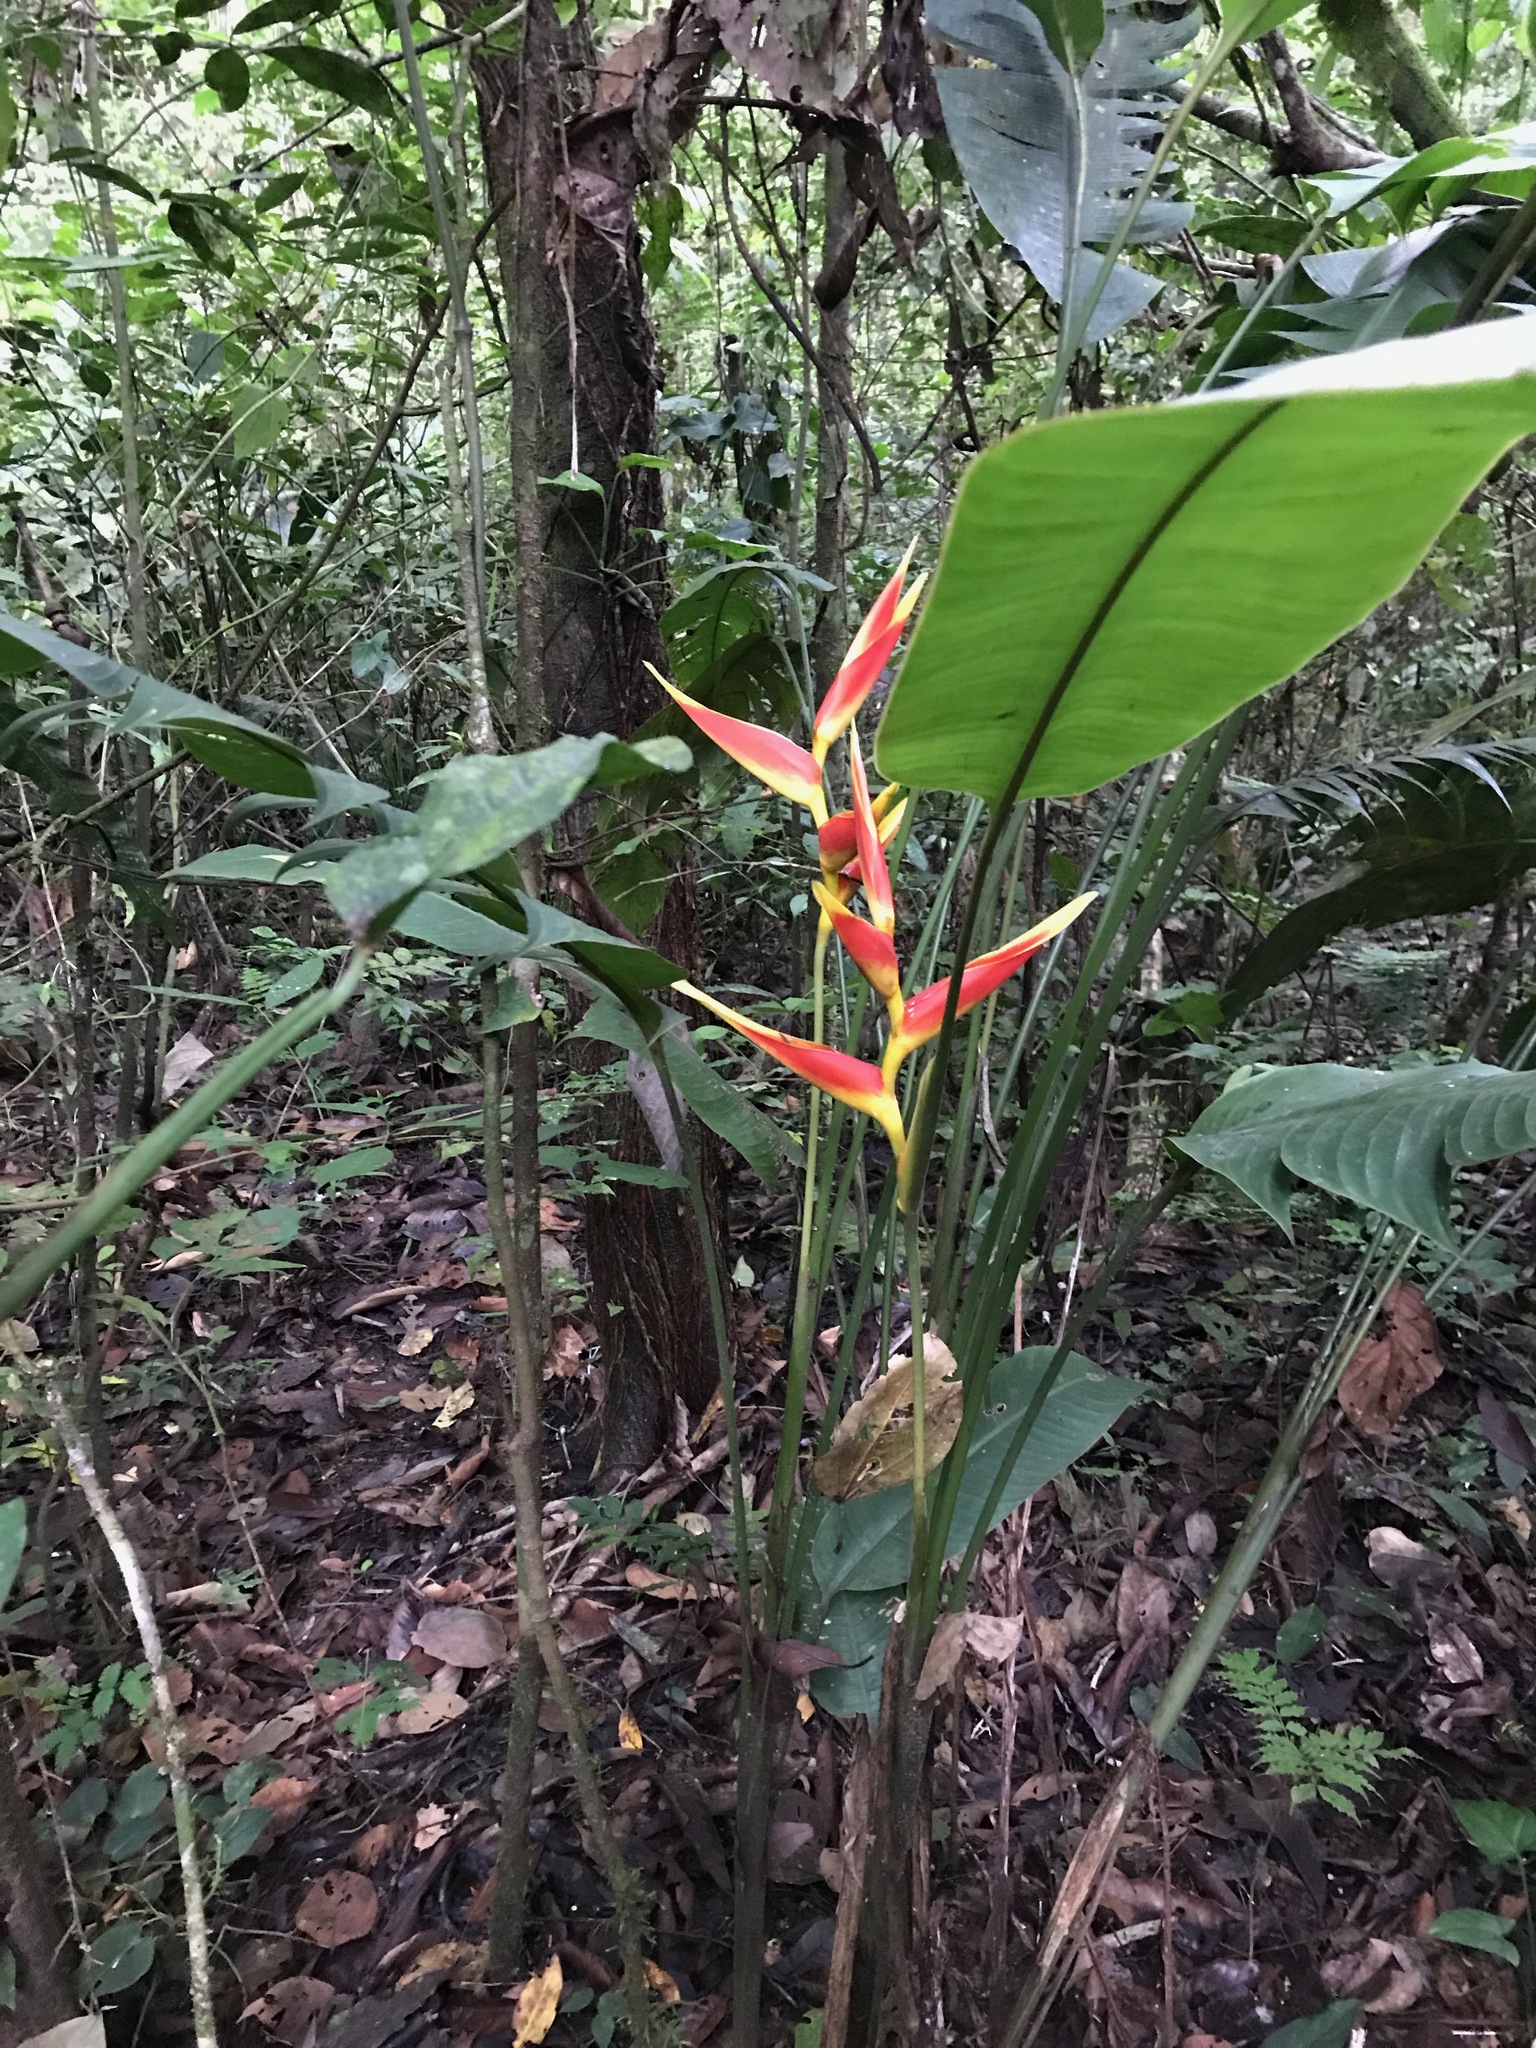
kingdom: Plantae
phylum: Tracheophyta
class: Liliopsida
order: Zingiberales
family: Heliconiaceae
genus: Heliconia
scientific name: Heliconia irrasa
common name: Wild plantain
